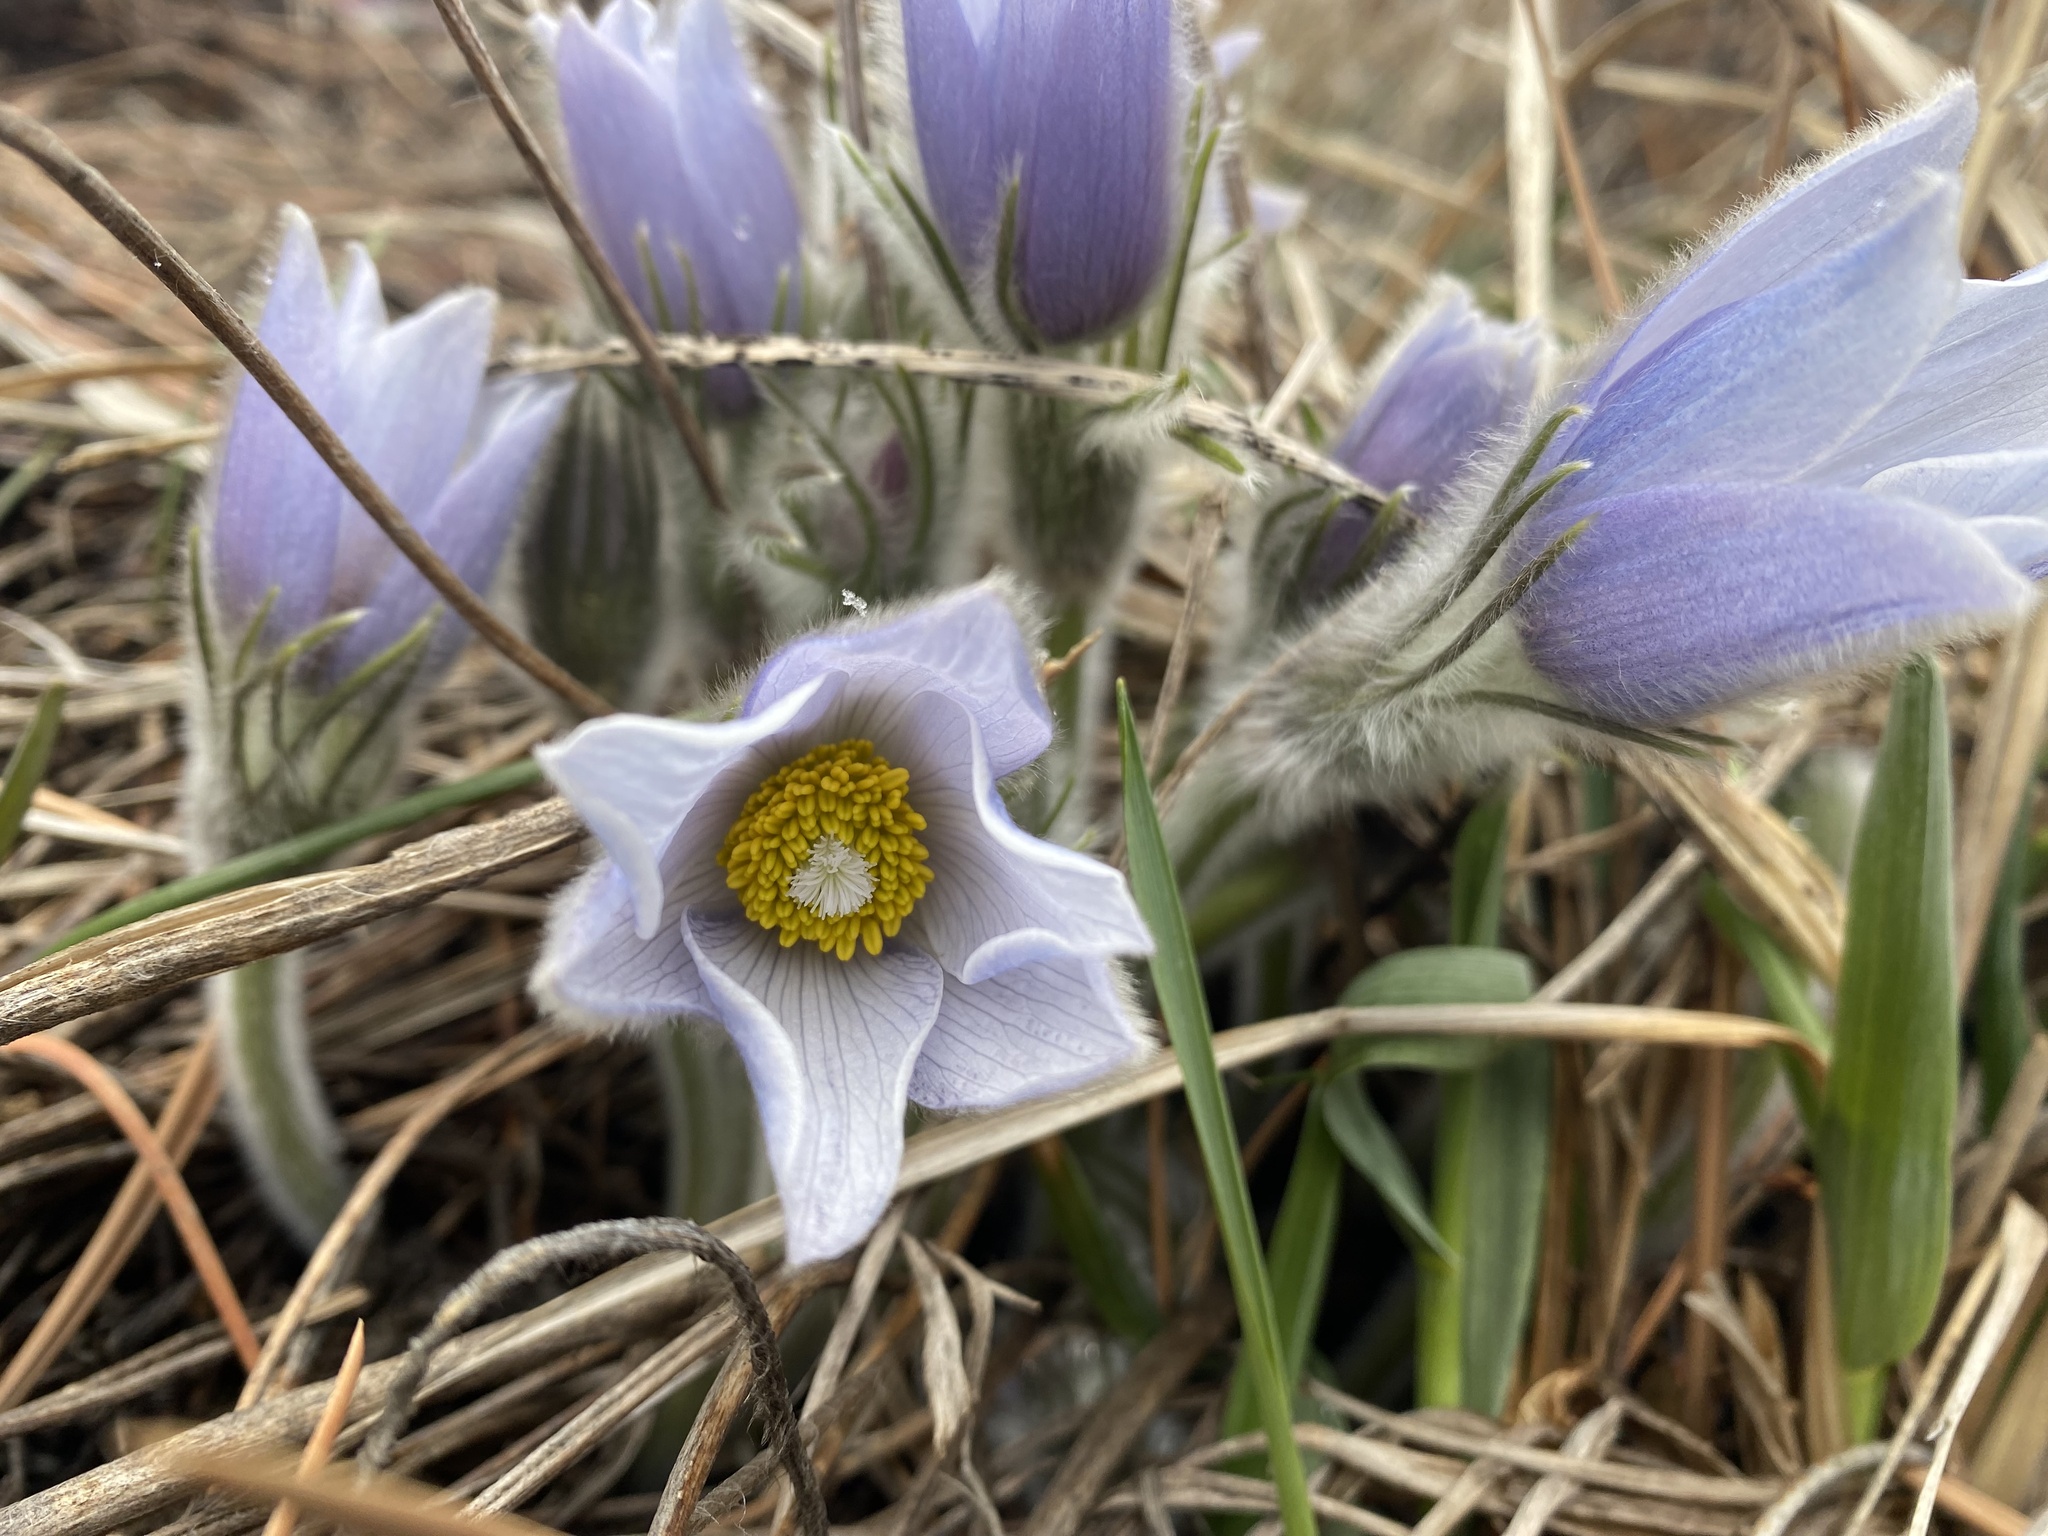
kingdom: Plantae
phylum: Tracheophyta
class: Magnoliopsida
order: Ranunculales
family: Ranunculaceae
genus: Pulsatilla
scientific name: Pulsatilla nuttalliana
